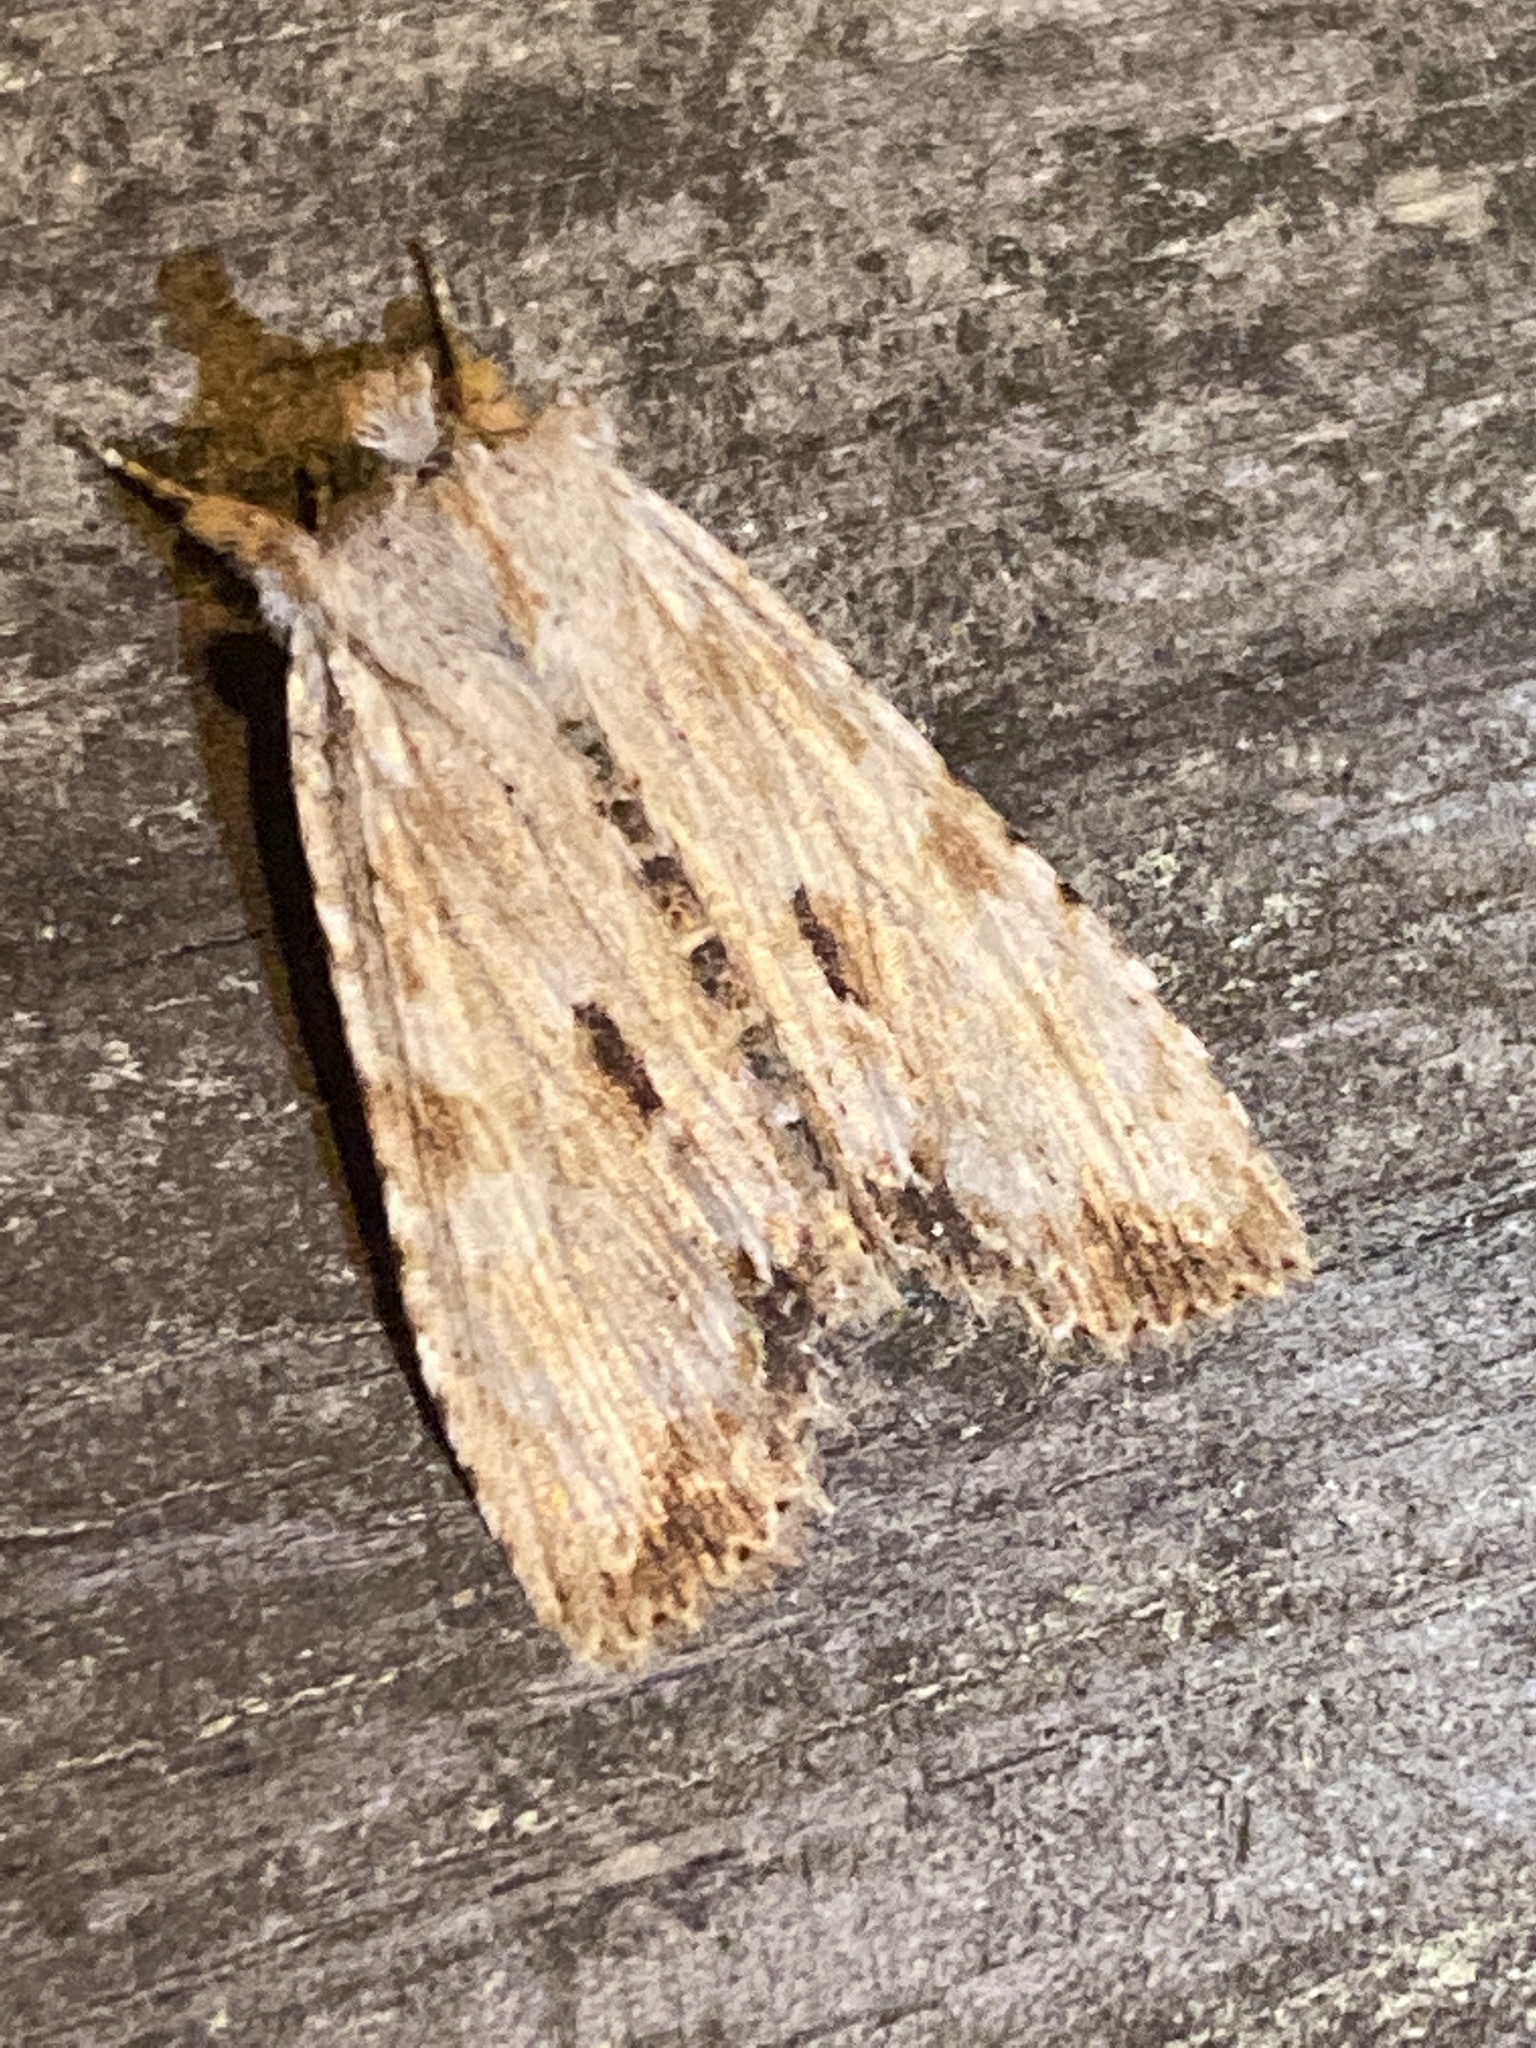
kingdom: Animalia
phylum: Arthropoda
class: Insecta
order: Lepidoptera
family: Noctuidae
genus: Lithophane
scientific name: Lithophane patefacta
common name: Dimorphic pinion moth
